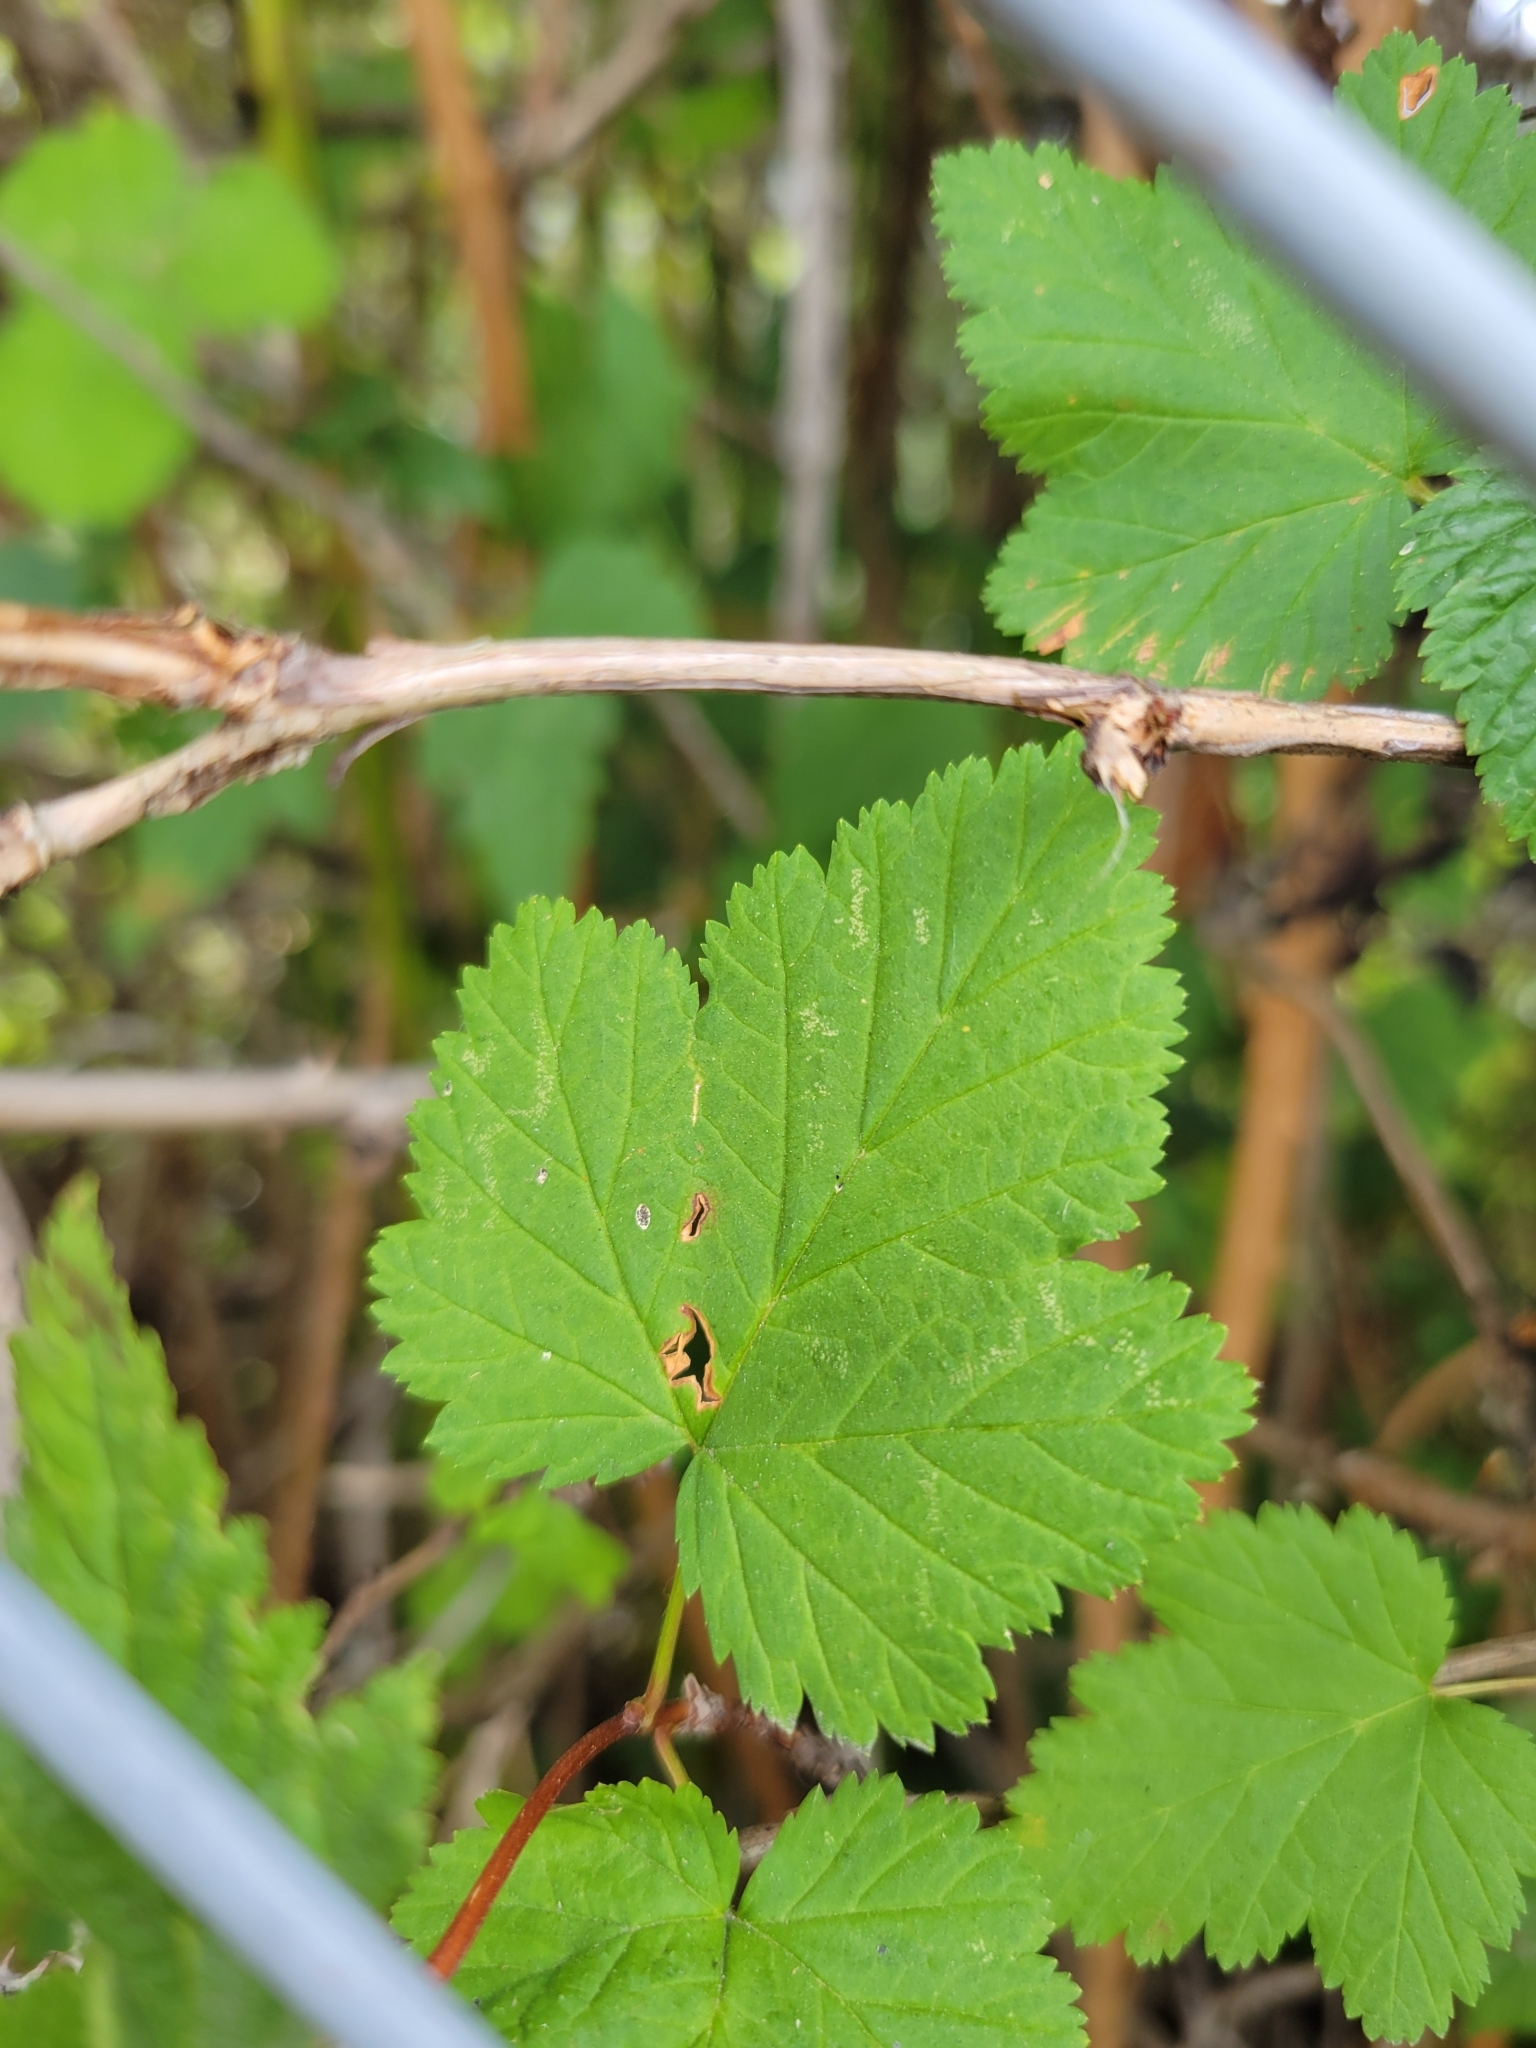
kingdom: Plantae
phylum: Tracheophyta
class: Magnoliopsida
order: Rosales
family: Rosaceae
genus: Physocarpus
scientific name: Physocarpus capitatus
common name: Pacific ninebark
